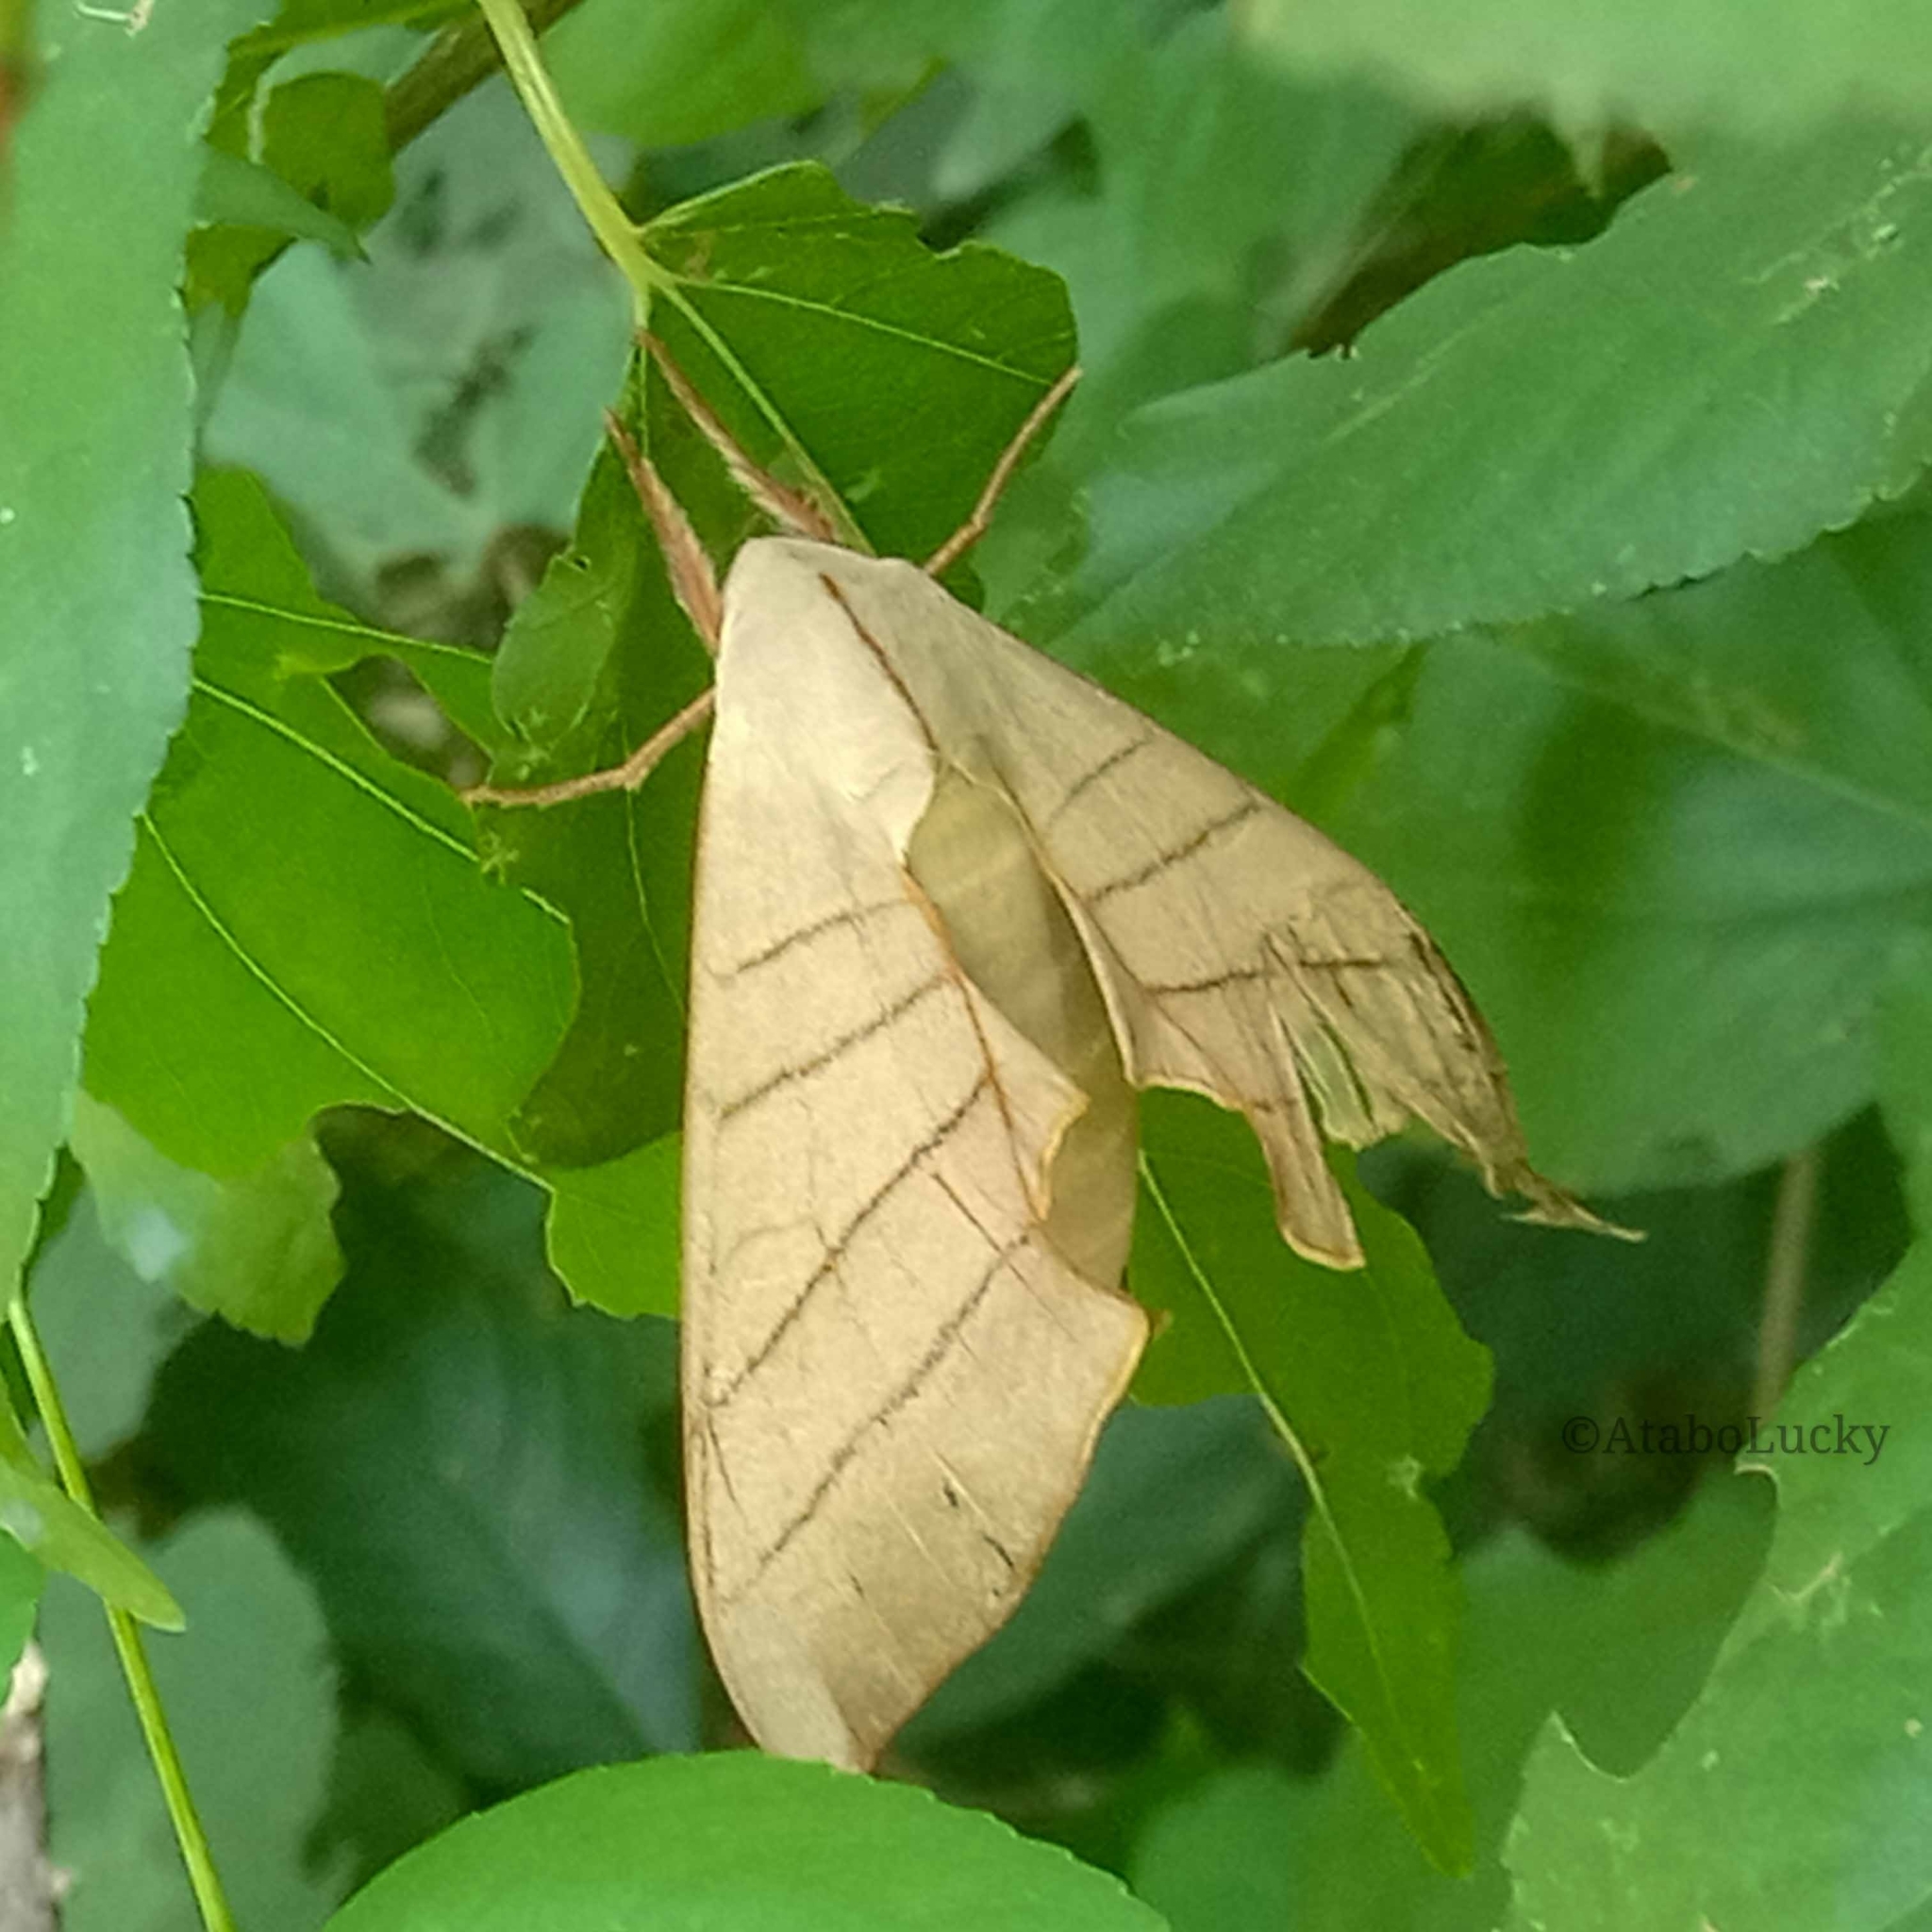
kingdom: Animalia
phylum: Arthropoda
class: Insecta
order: Lepidoptera
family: Sphingidae
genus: Pseudoclanis
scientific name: Pseudoclanis molitor
